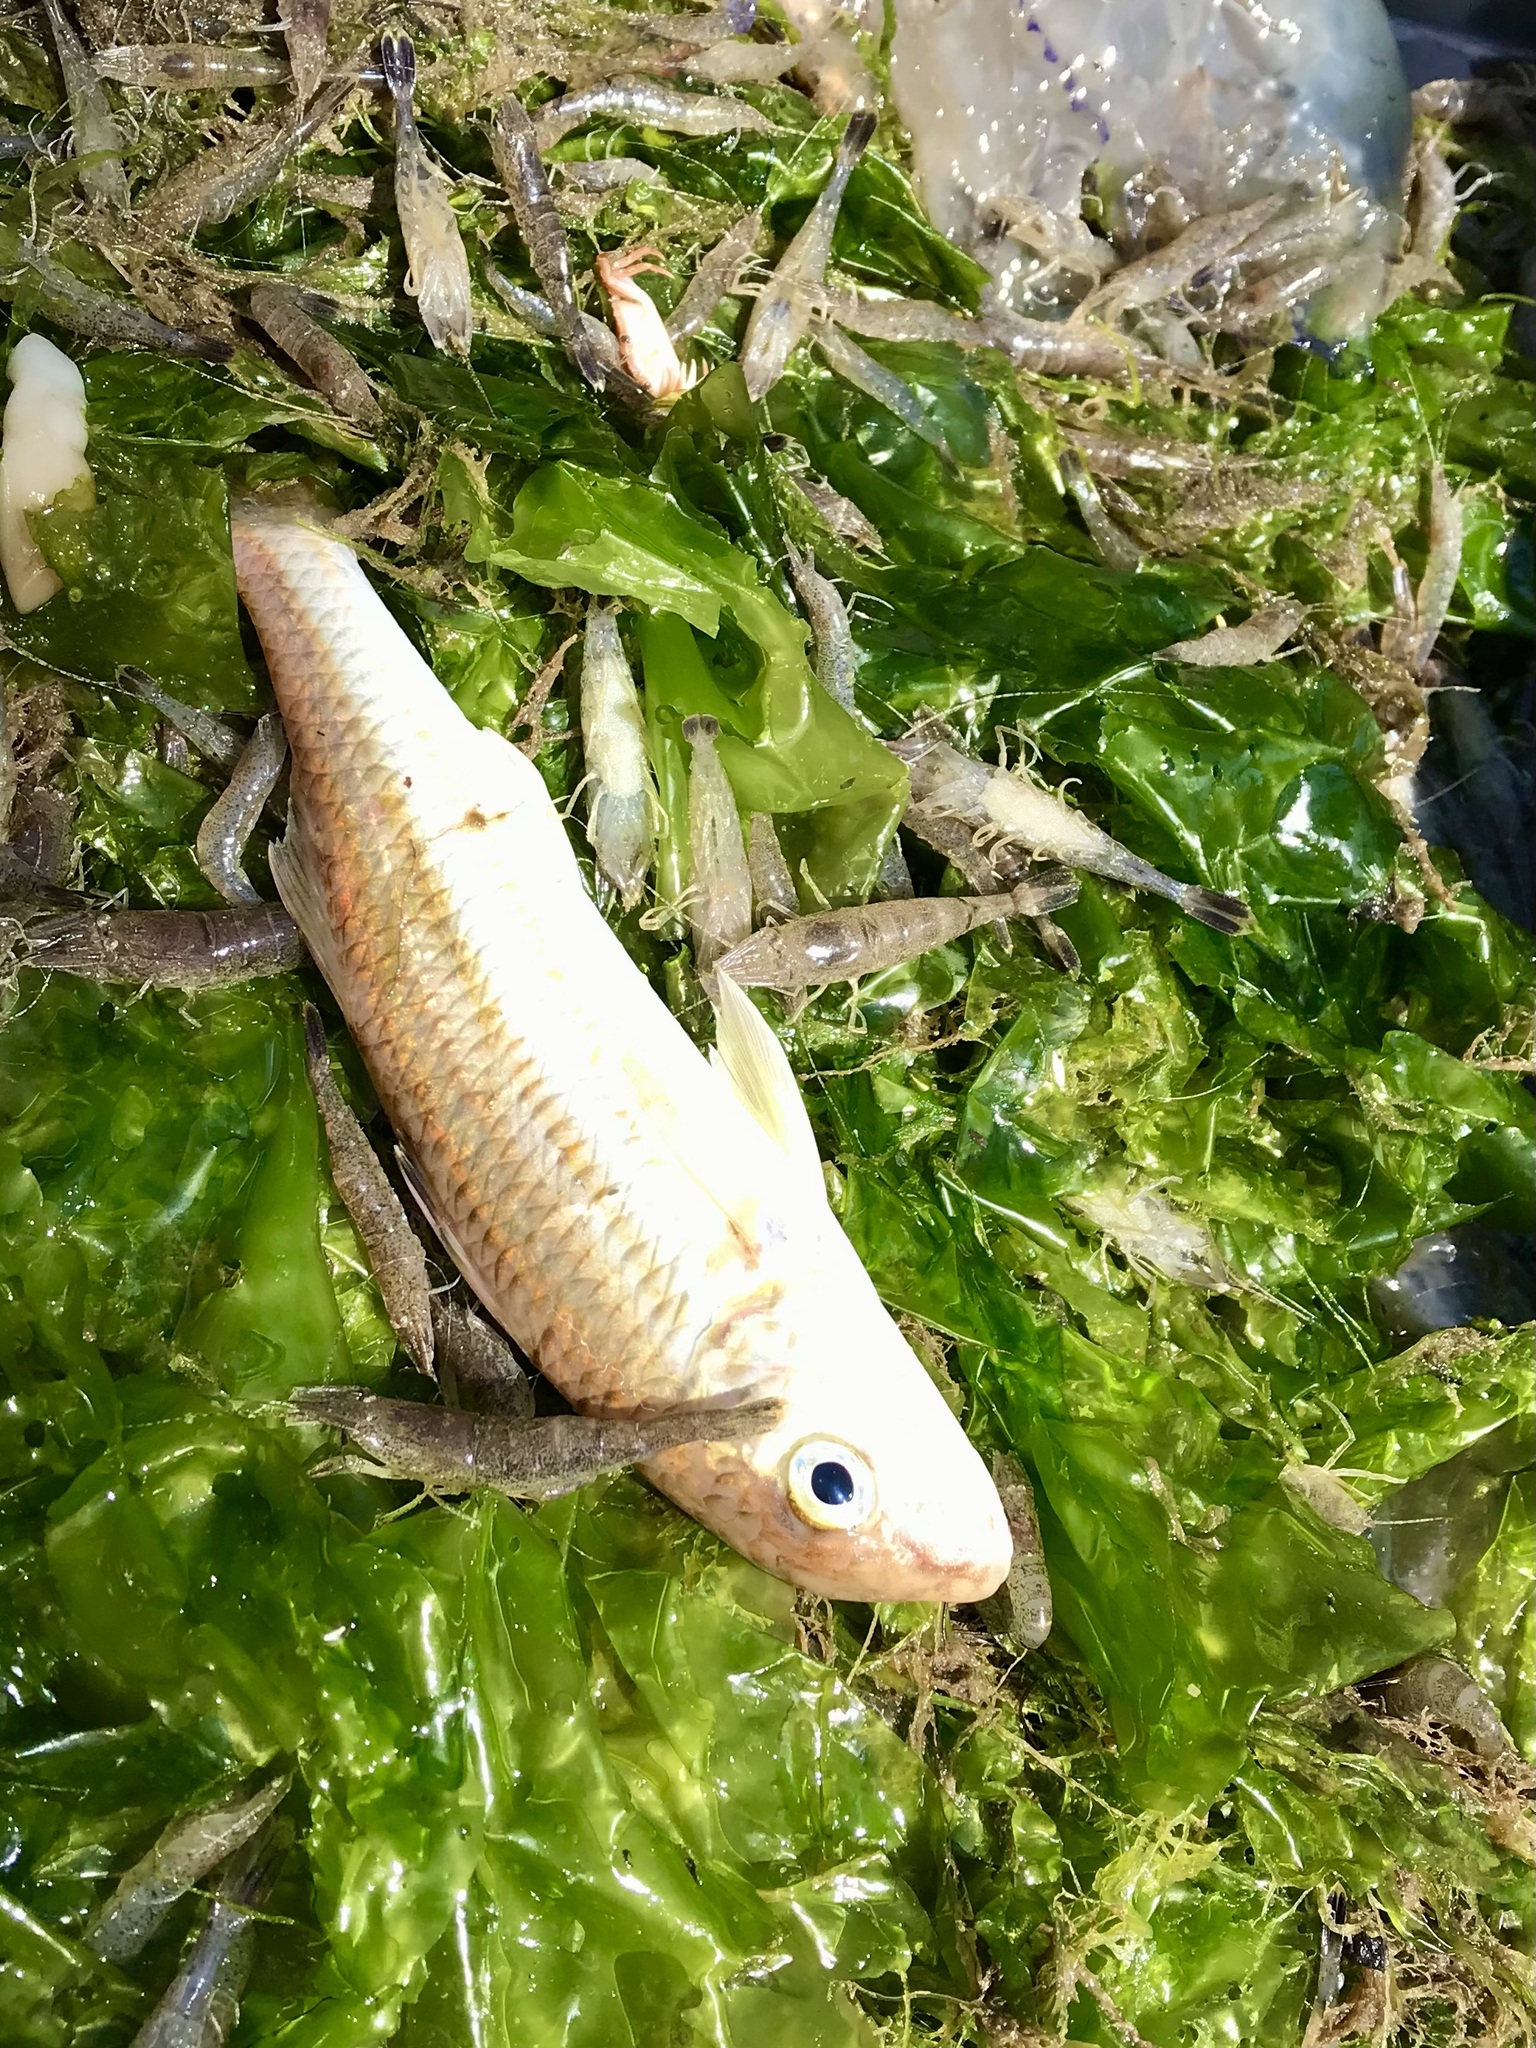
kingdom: Animalia
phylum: Chordata
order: Perciformes
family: Mullidae
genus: Mullus
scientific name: Mullus surmuletus
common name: Red mullet
